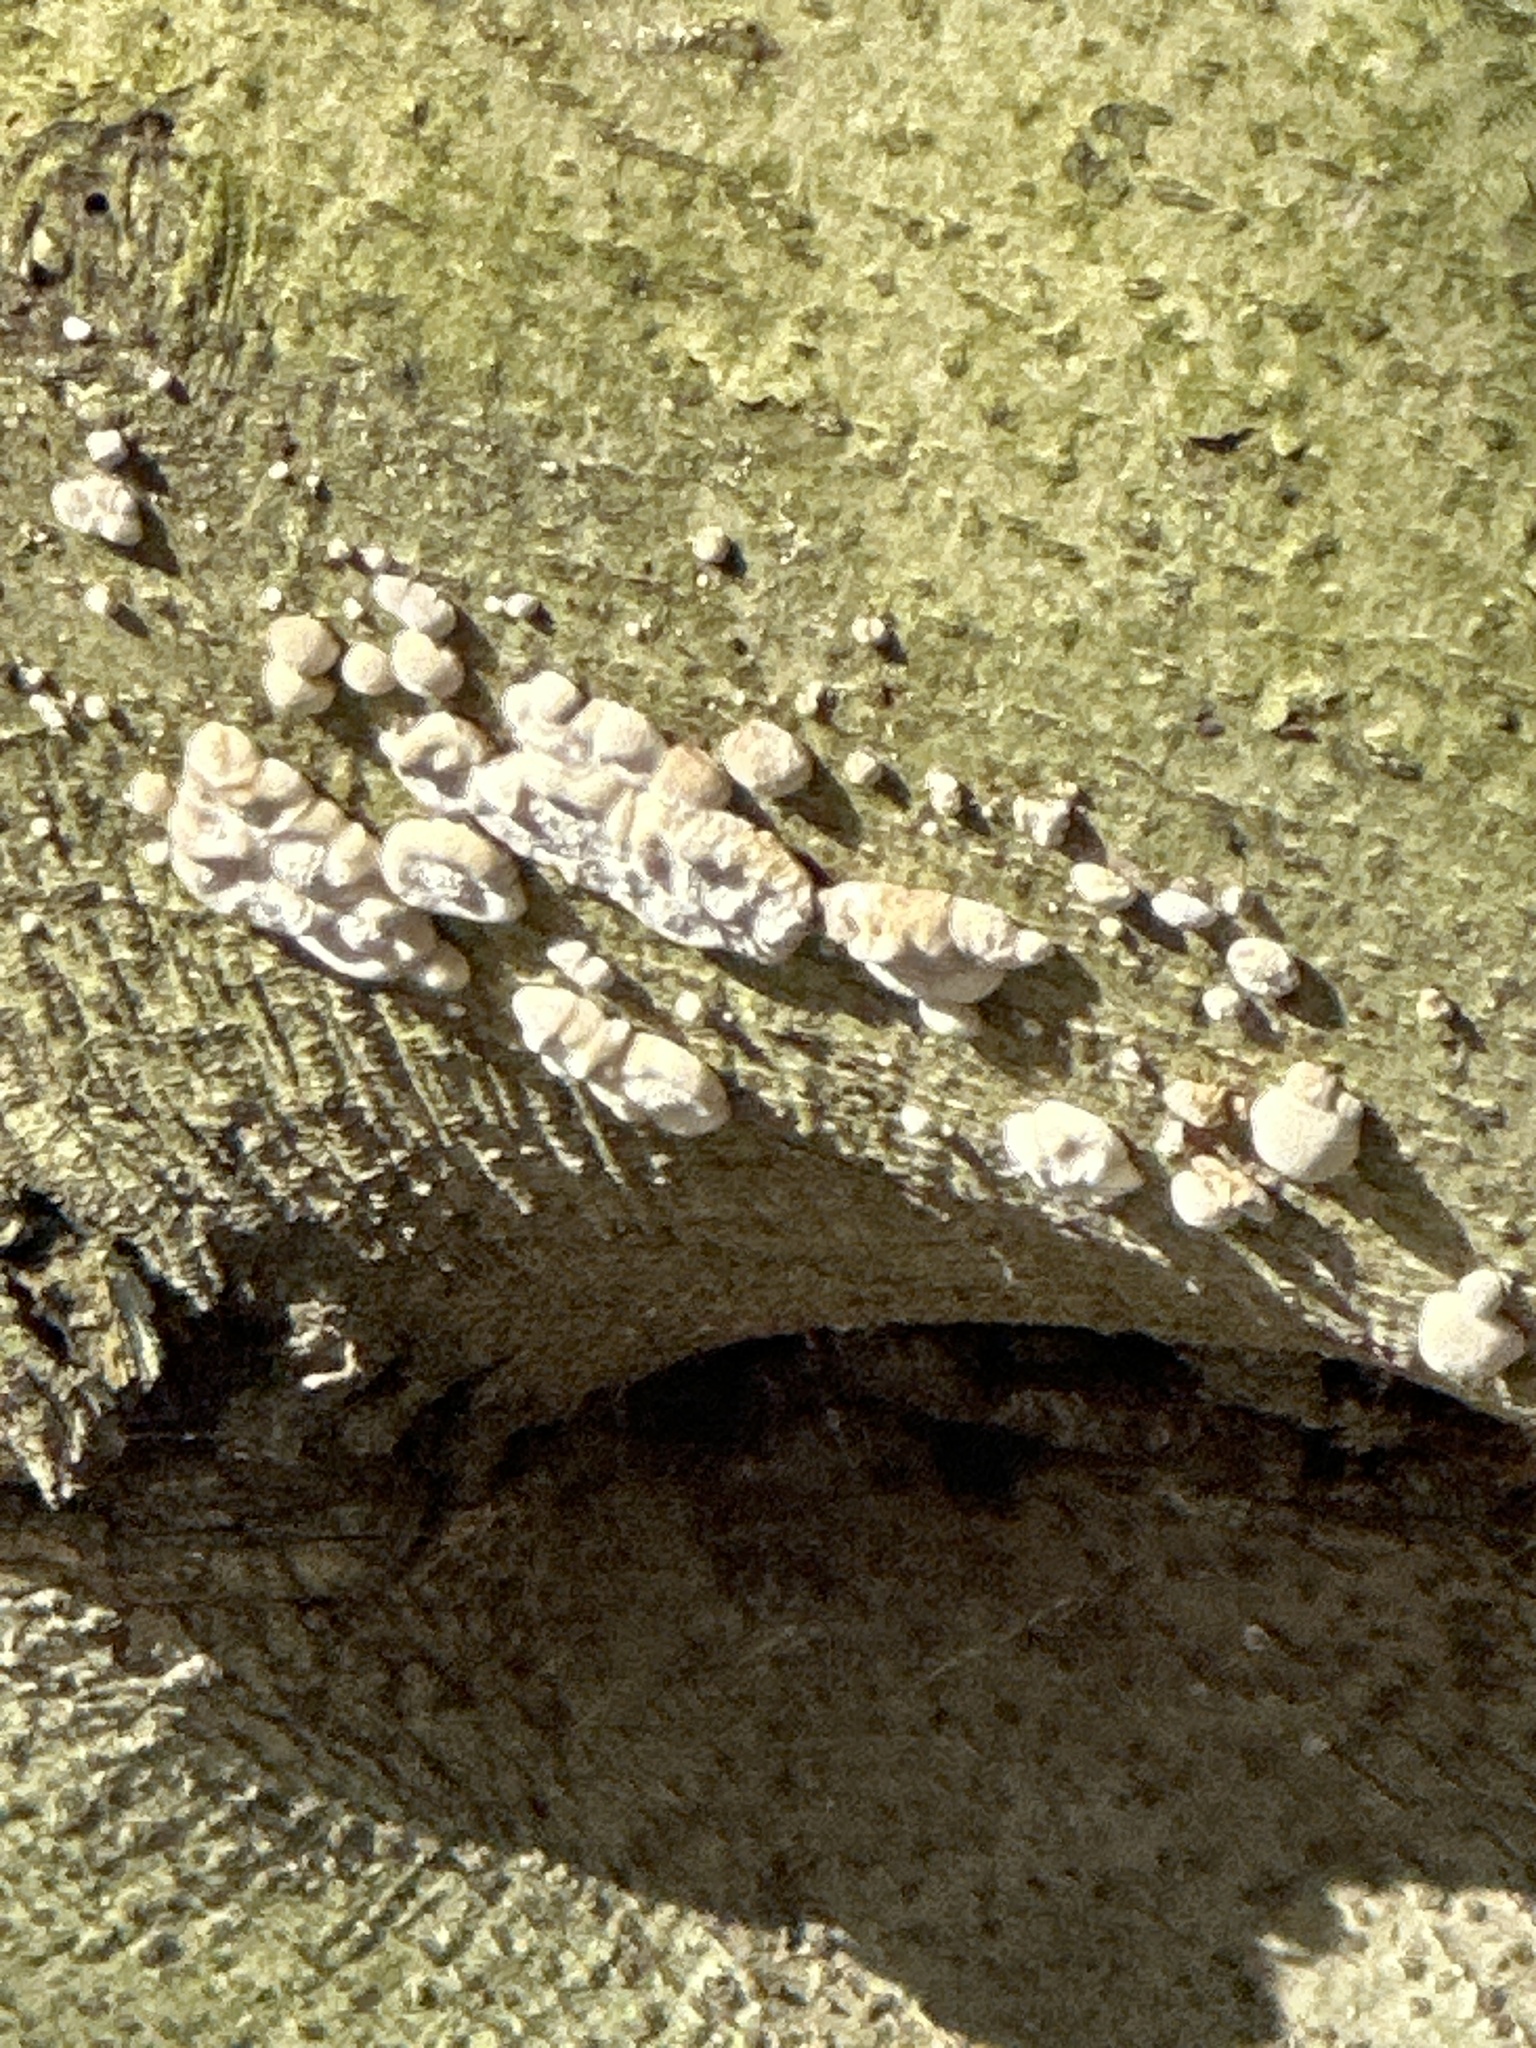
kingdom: Fungi
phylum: Basidiomycota
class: Agaricomycetes
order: Russulales
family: Stereaceae
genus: Xylobolus
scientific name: Xylobolus frustulatus
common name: Ceramic parchment
